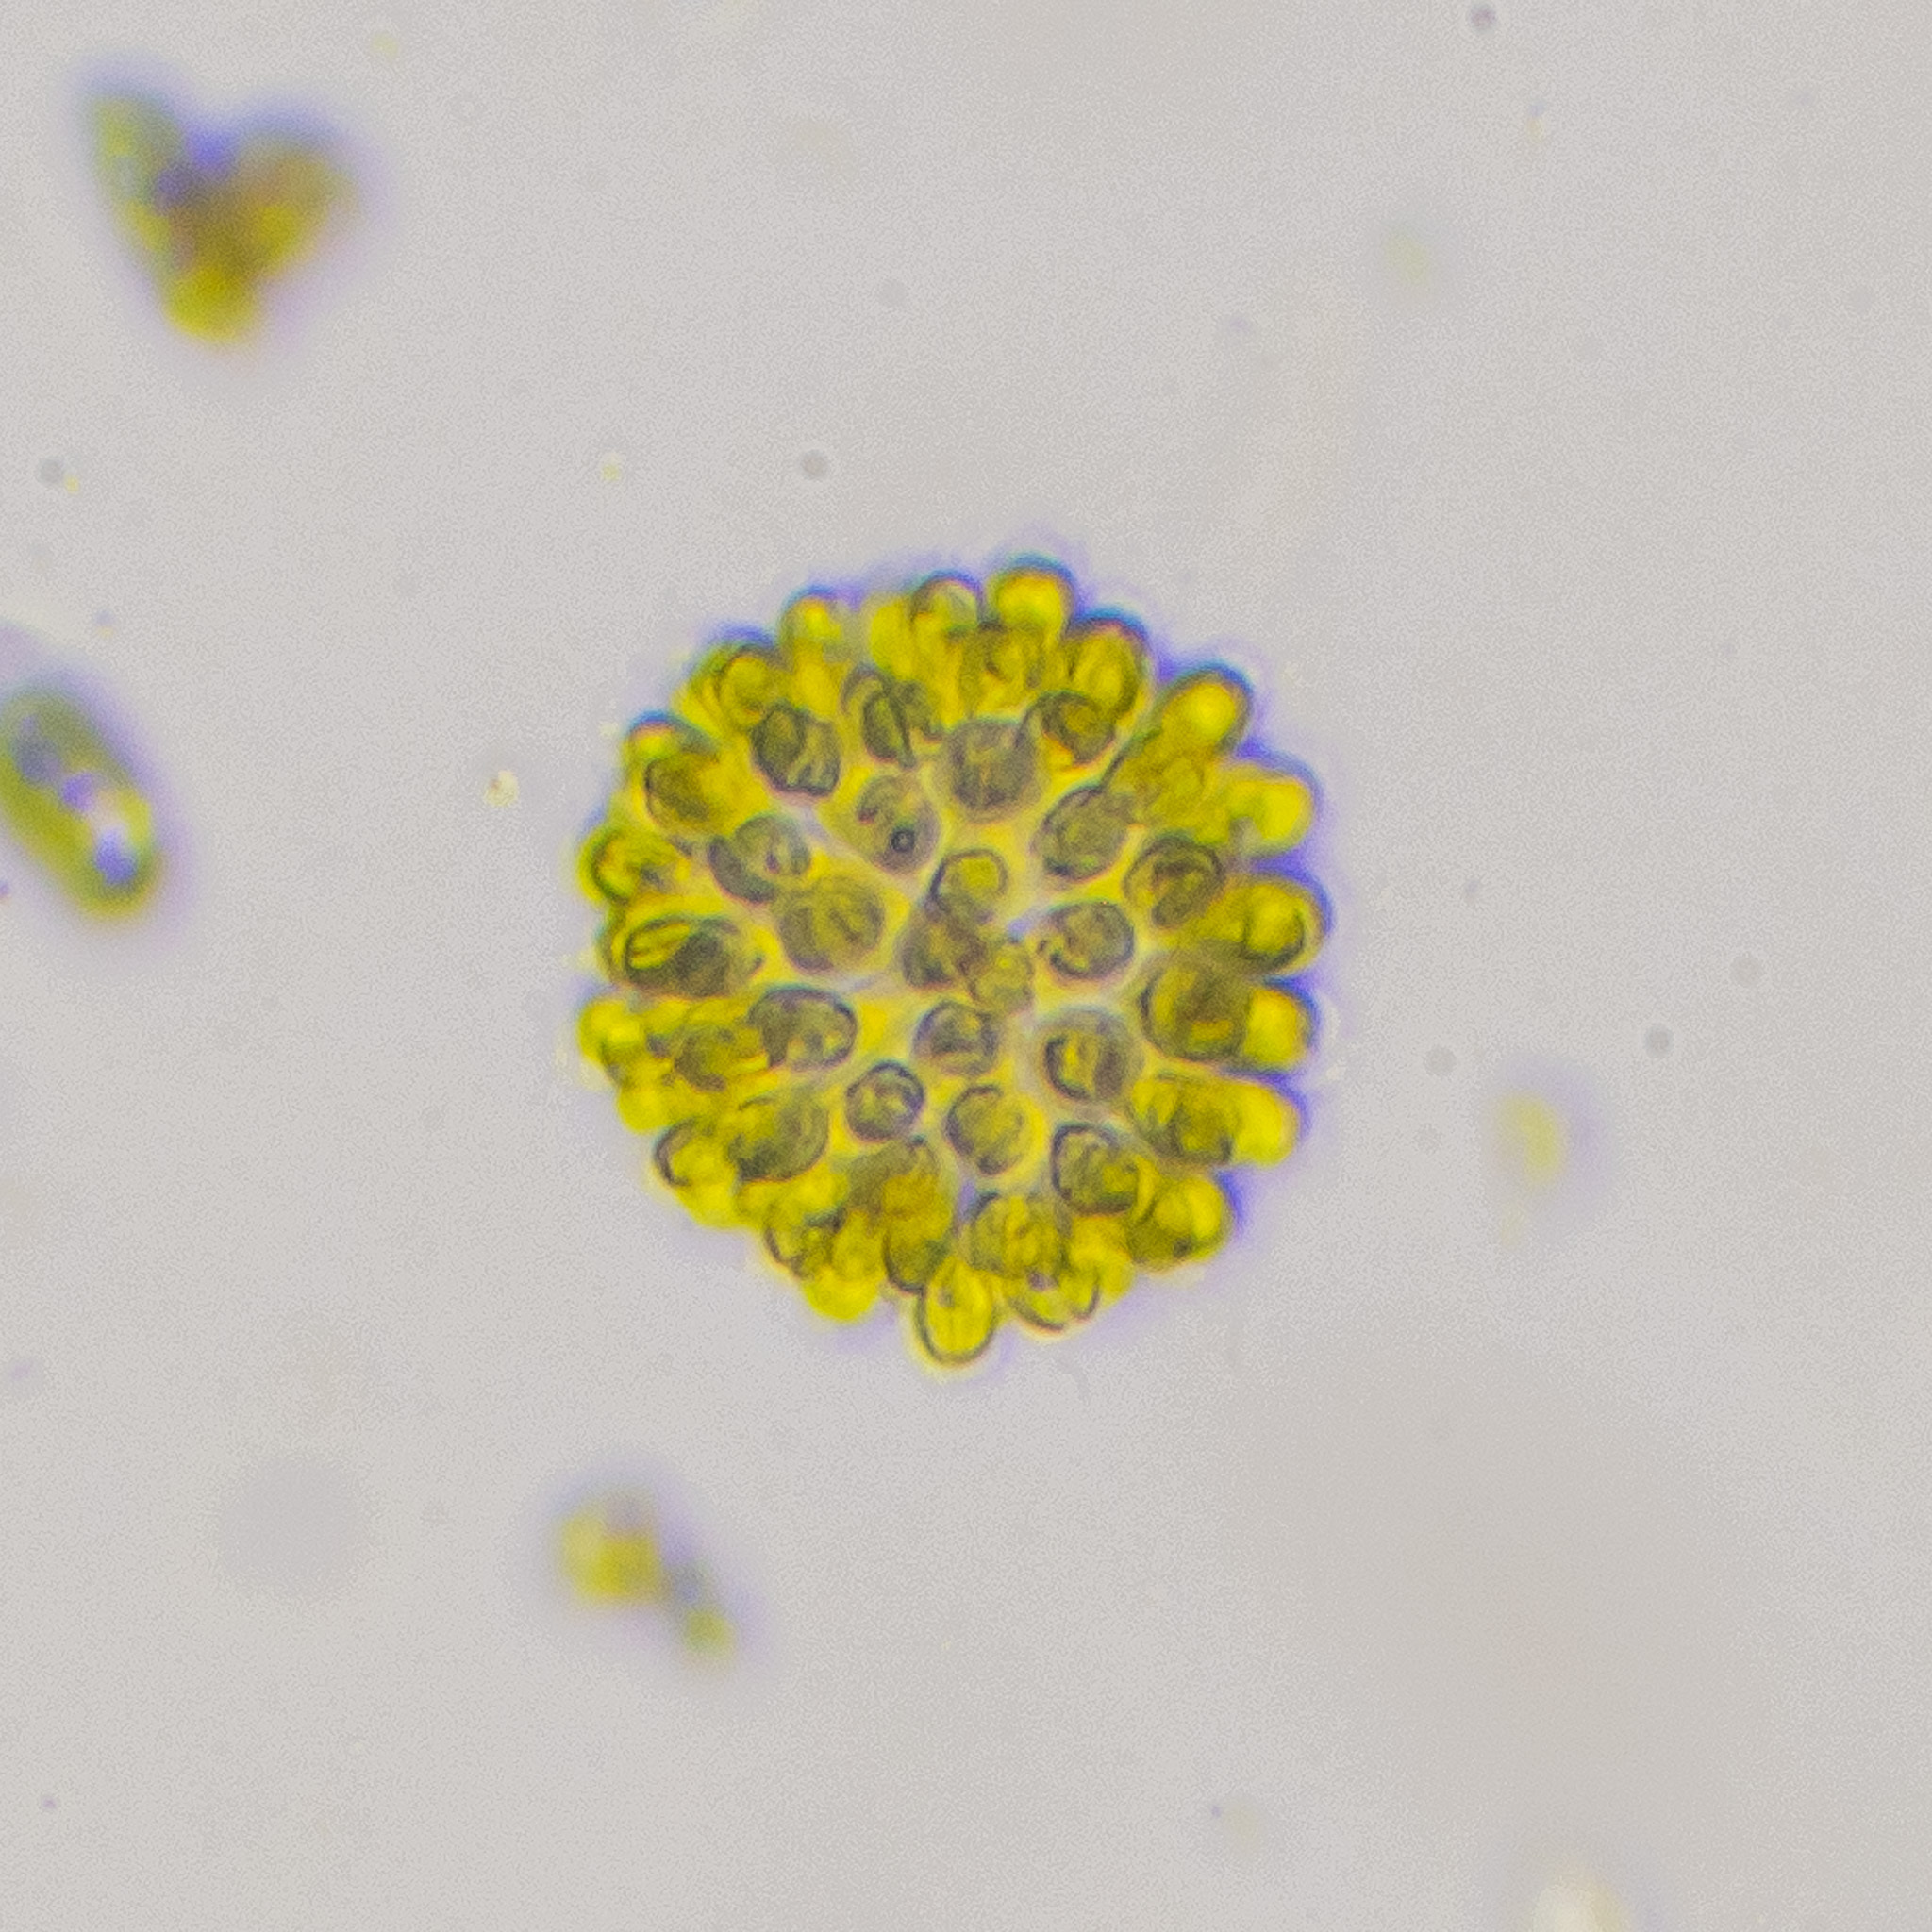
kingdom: Chromista
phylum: Ochrophyta
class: Synurophyceae
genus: Synura
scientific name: Synura
